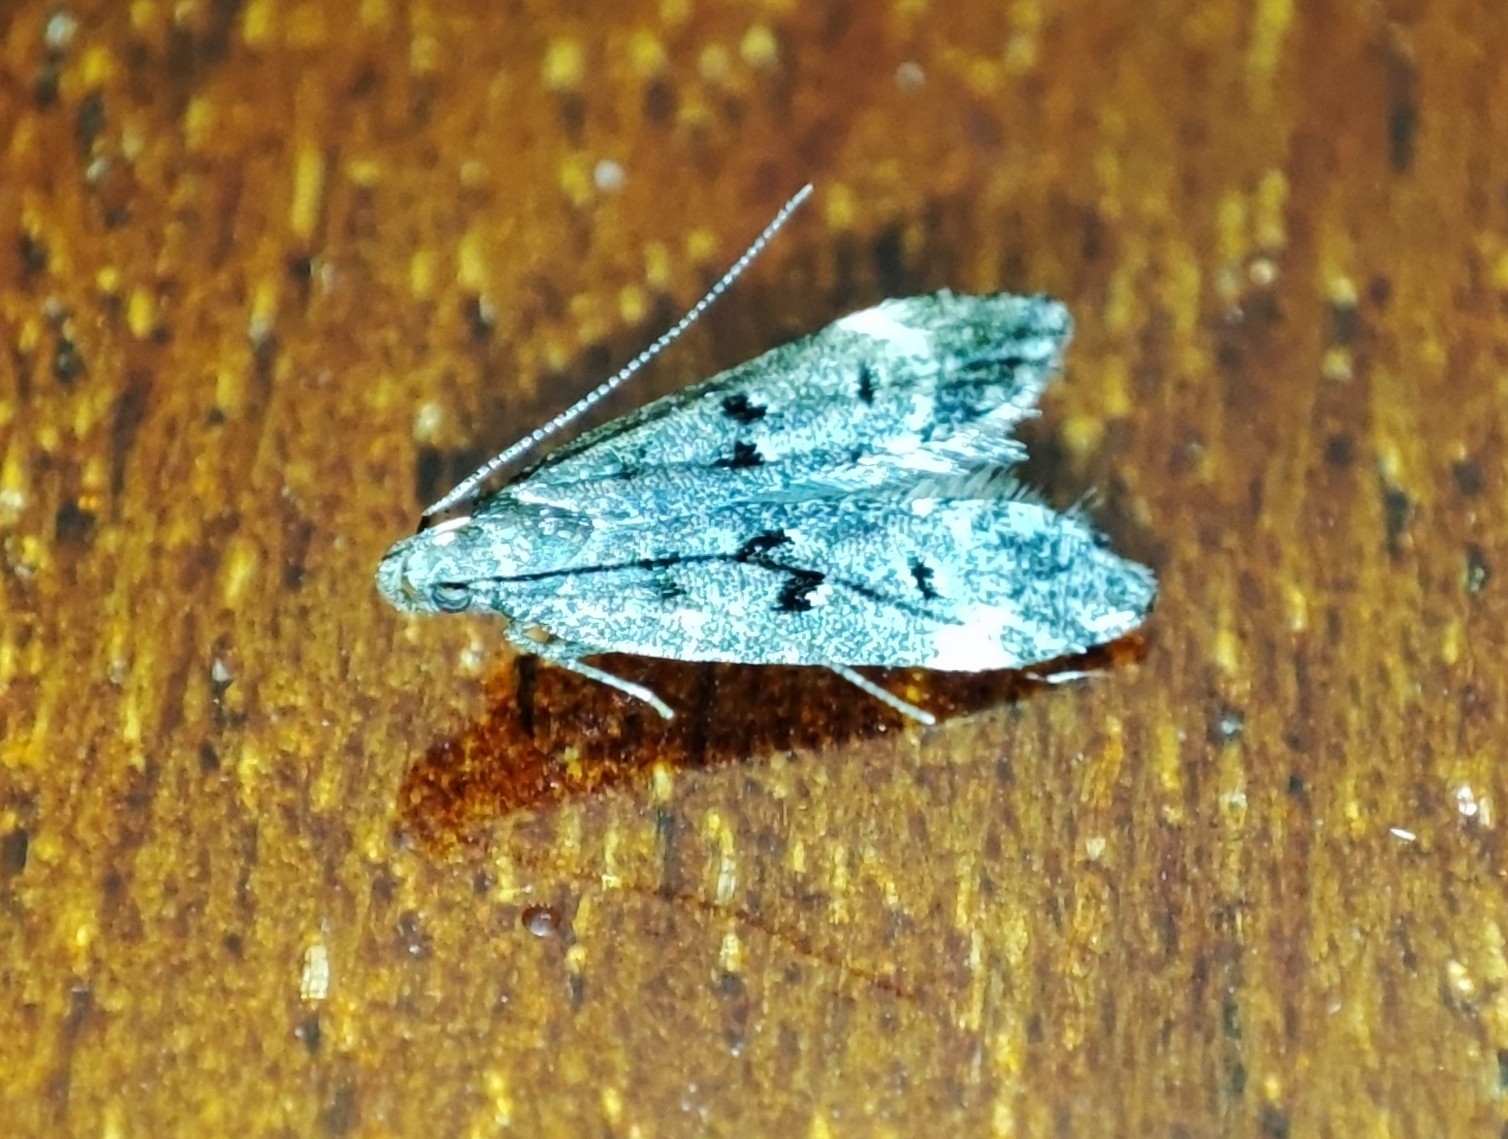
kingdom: Animalia
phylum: Arthropoda
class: Insecta
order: Lepidoptera
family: Gelechiidae
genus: Acanthophila
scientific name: Acanthophila alacella
